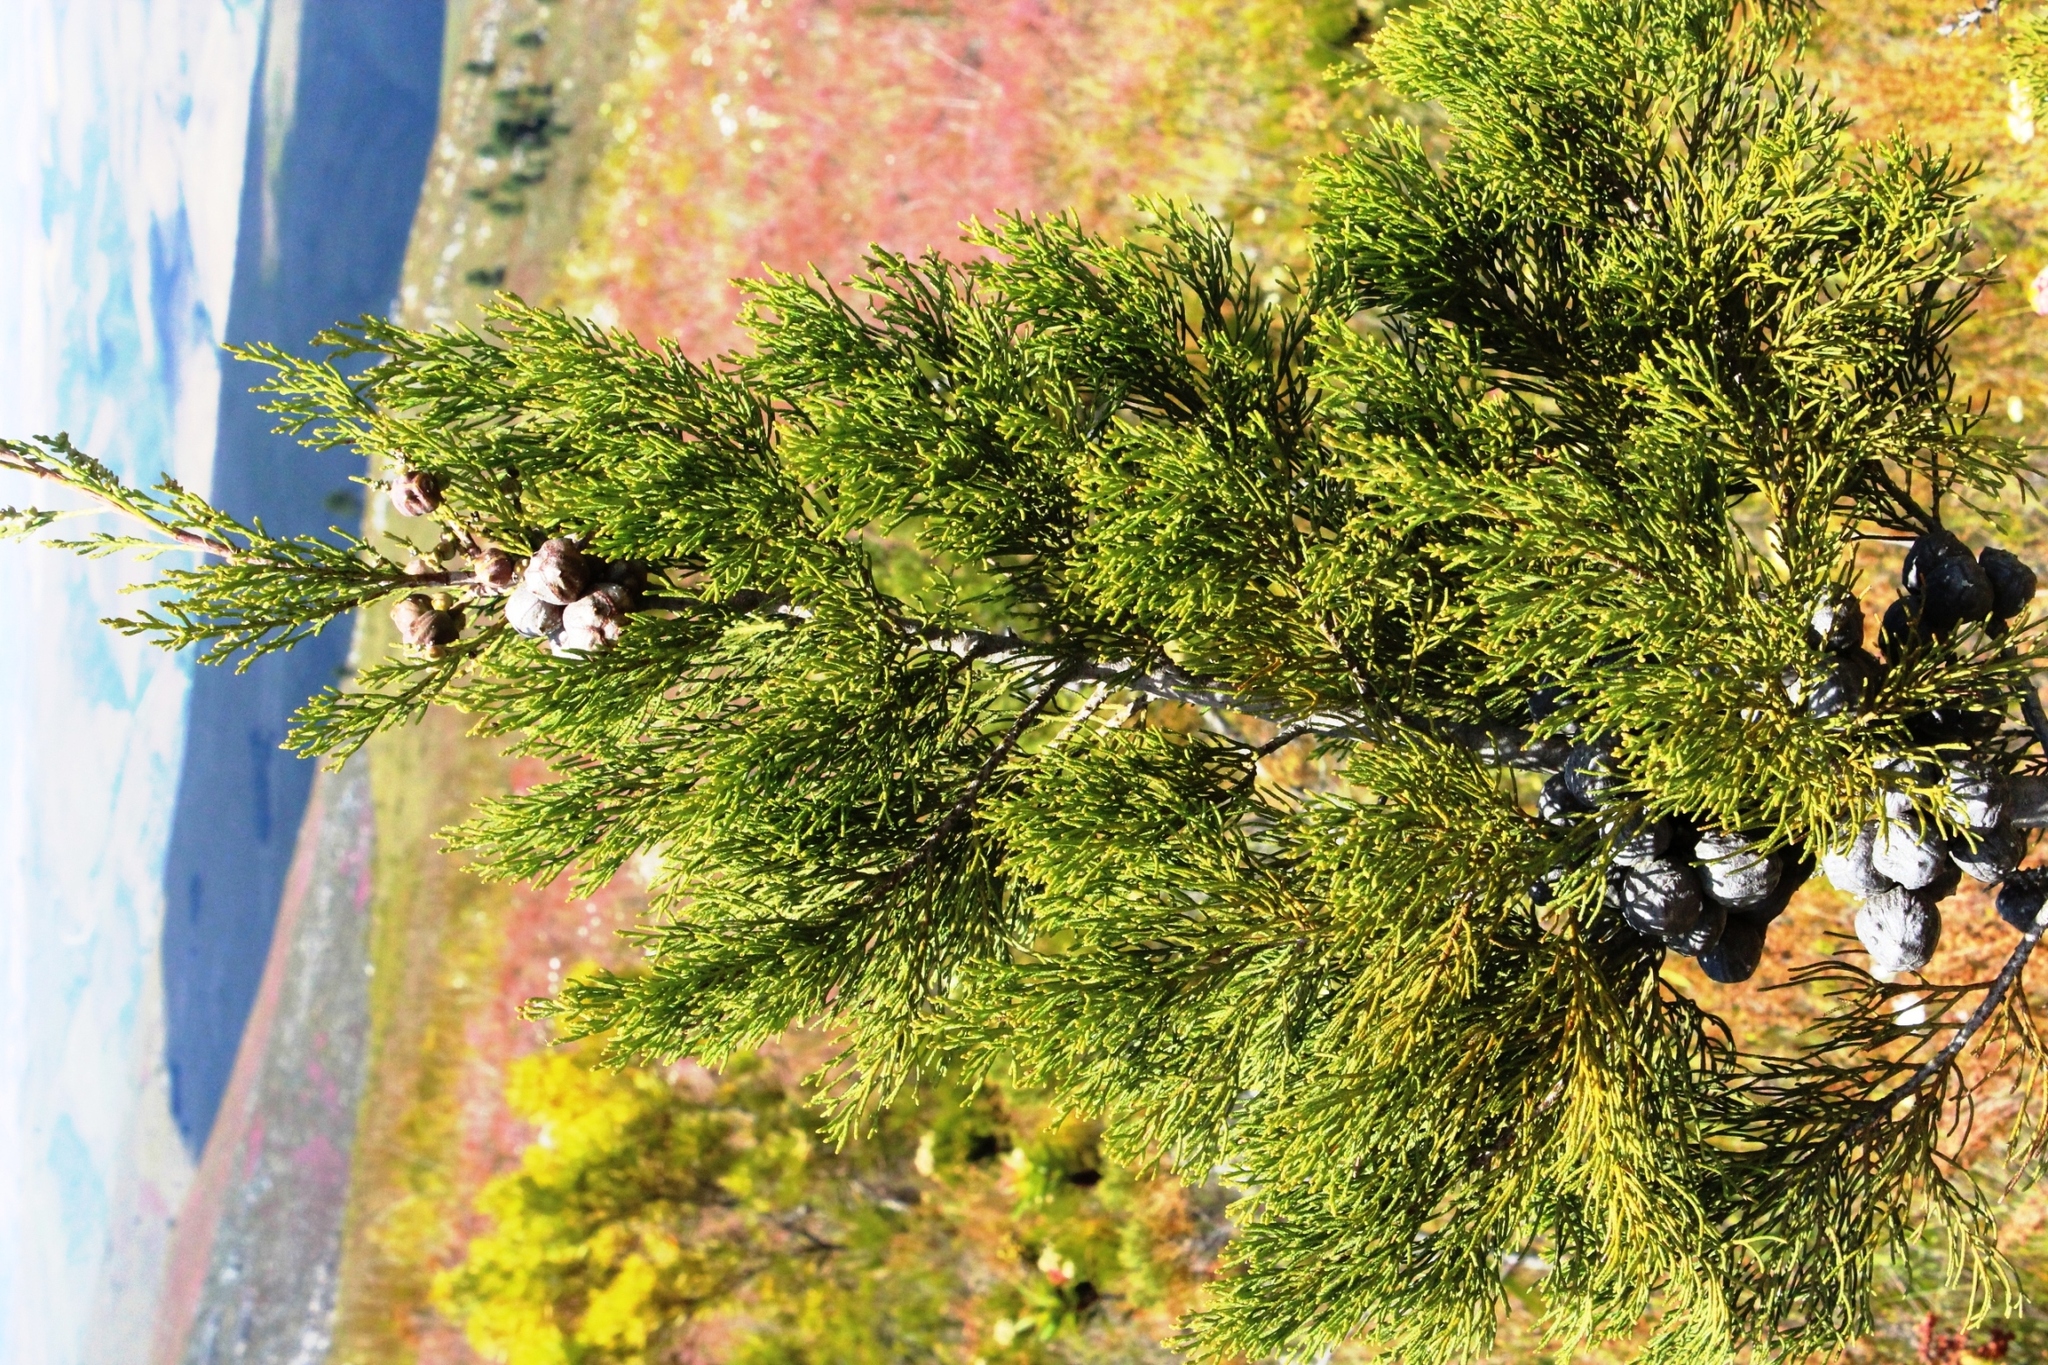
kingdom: Plantae
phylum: Tracheophyta
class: Pinopsida
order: Pinales
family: Cupressaceae
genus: Widdringtonia
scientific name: Widdringtonia nodiflora
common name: Cape cypress
